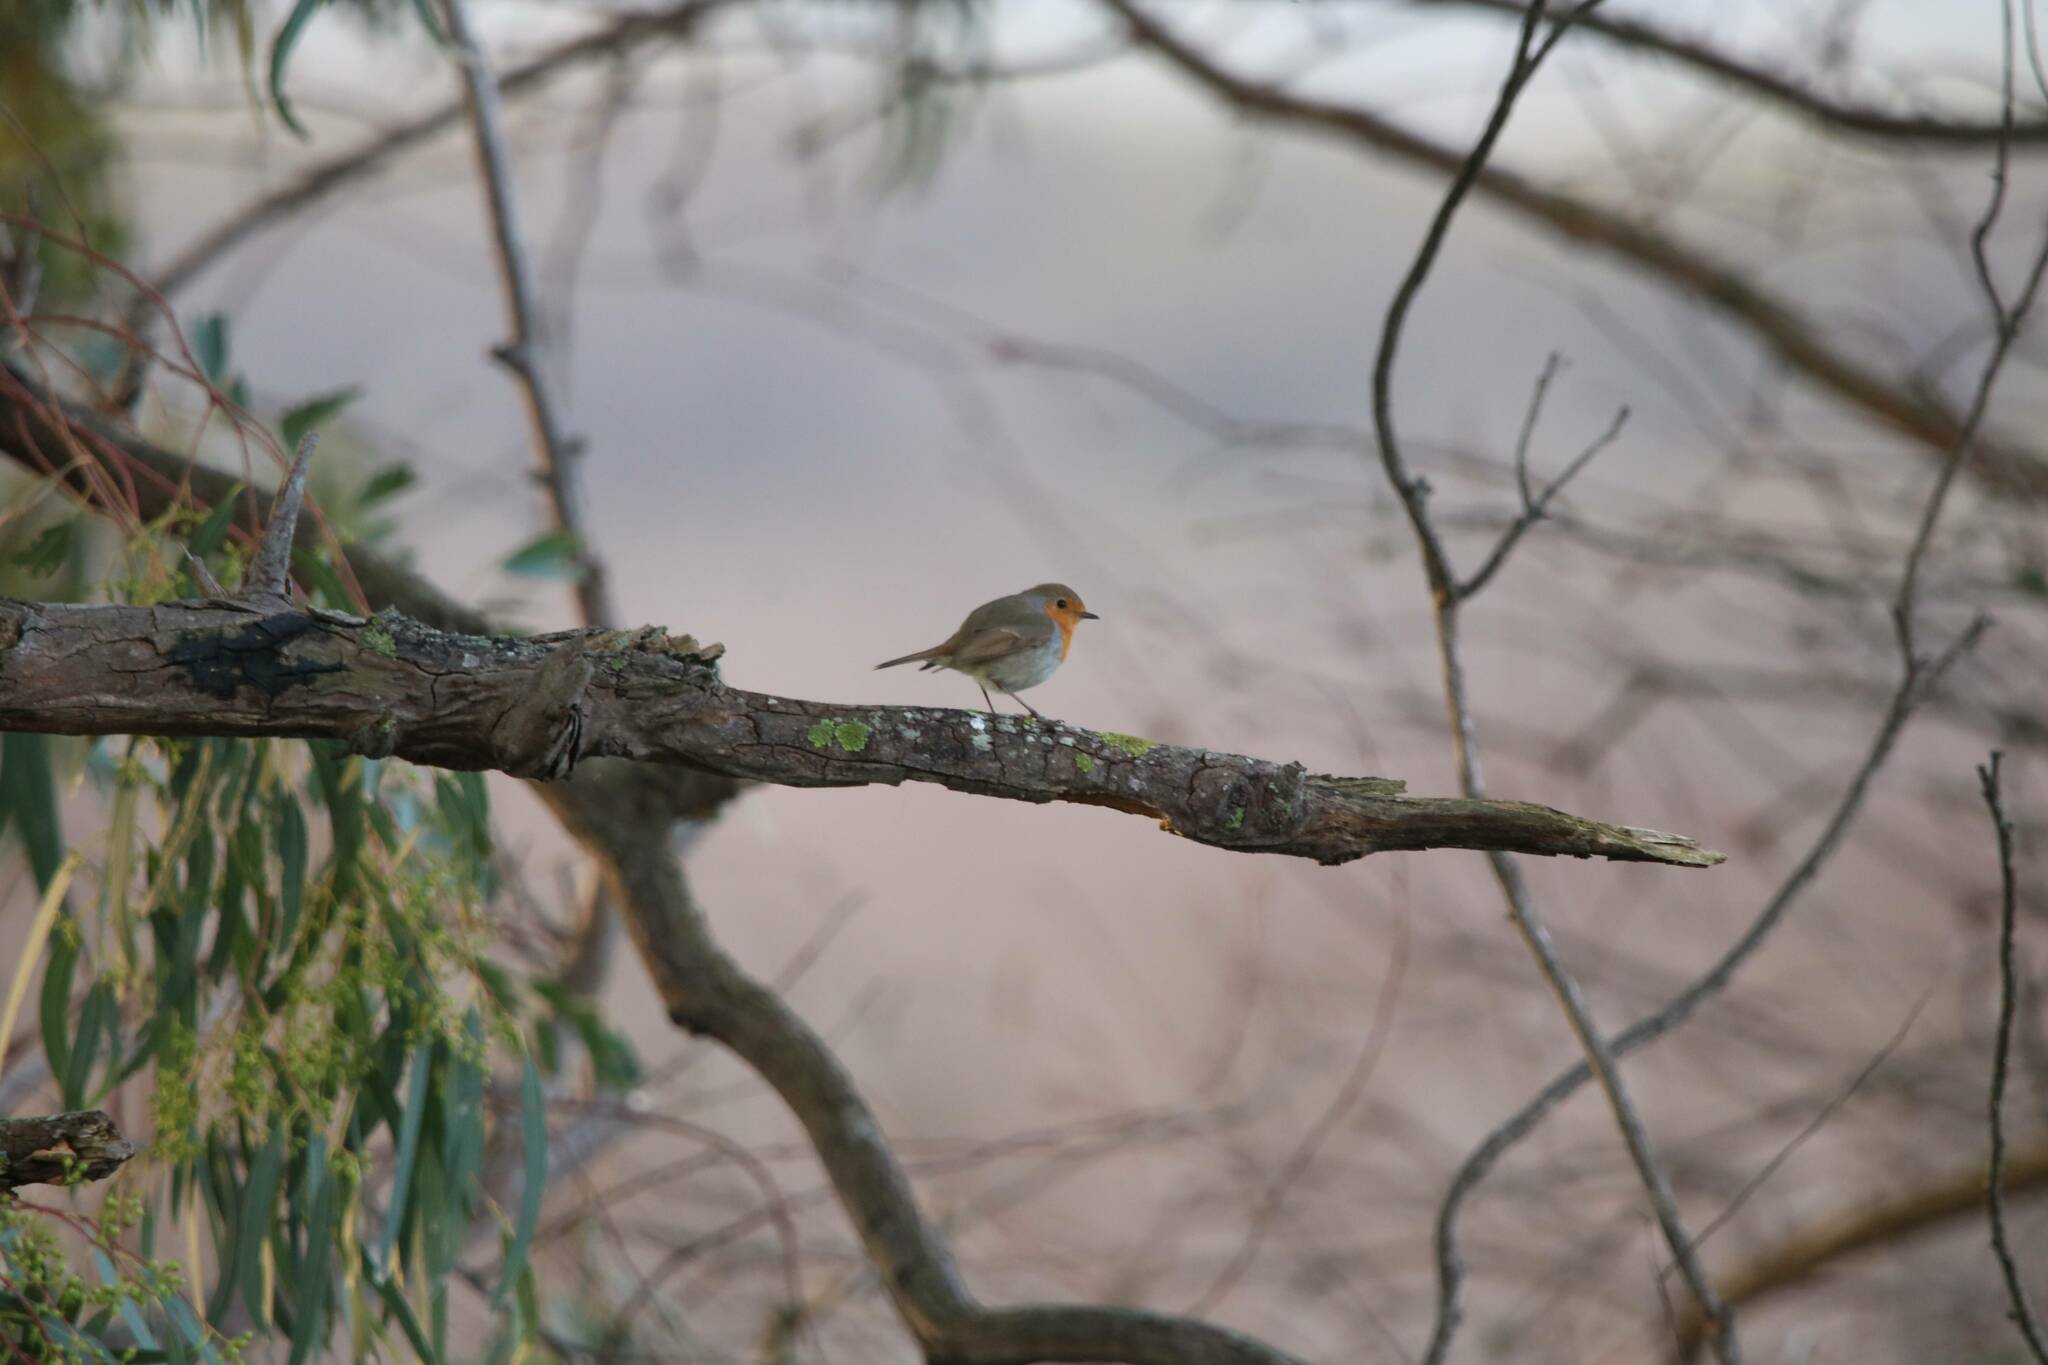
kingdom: Animalia
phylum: Chordata
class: Aves
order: Passeriformes
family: Muscicapidae
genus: Erithacus
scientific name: Erithacus rubecula
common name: European robin
